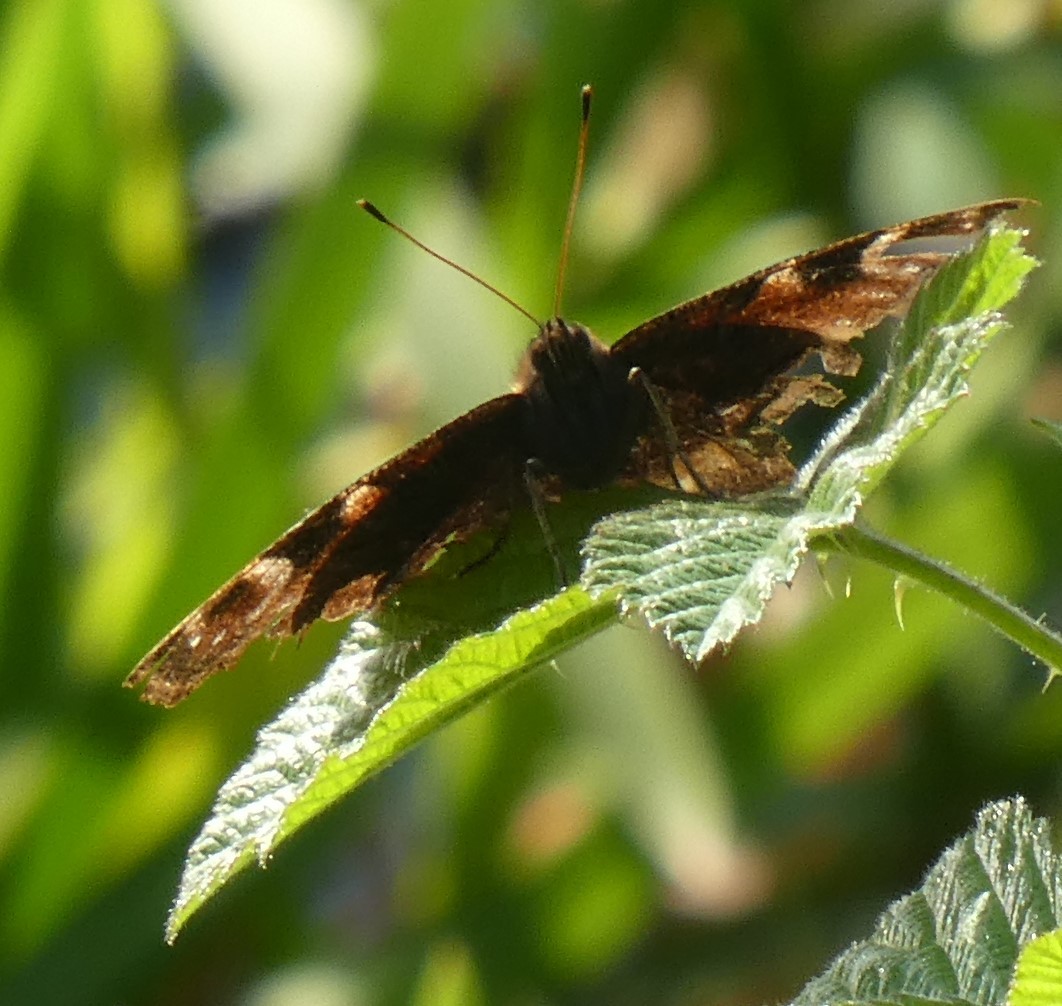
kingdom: Animalia
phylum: Arthropoda
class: Insecta
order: Lepidoptera
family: Nymphalidae
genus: Aglais
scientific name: Aglais io
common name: Peacock
